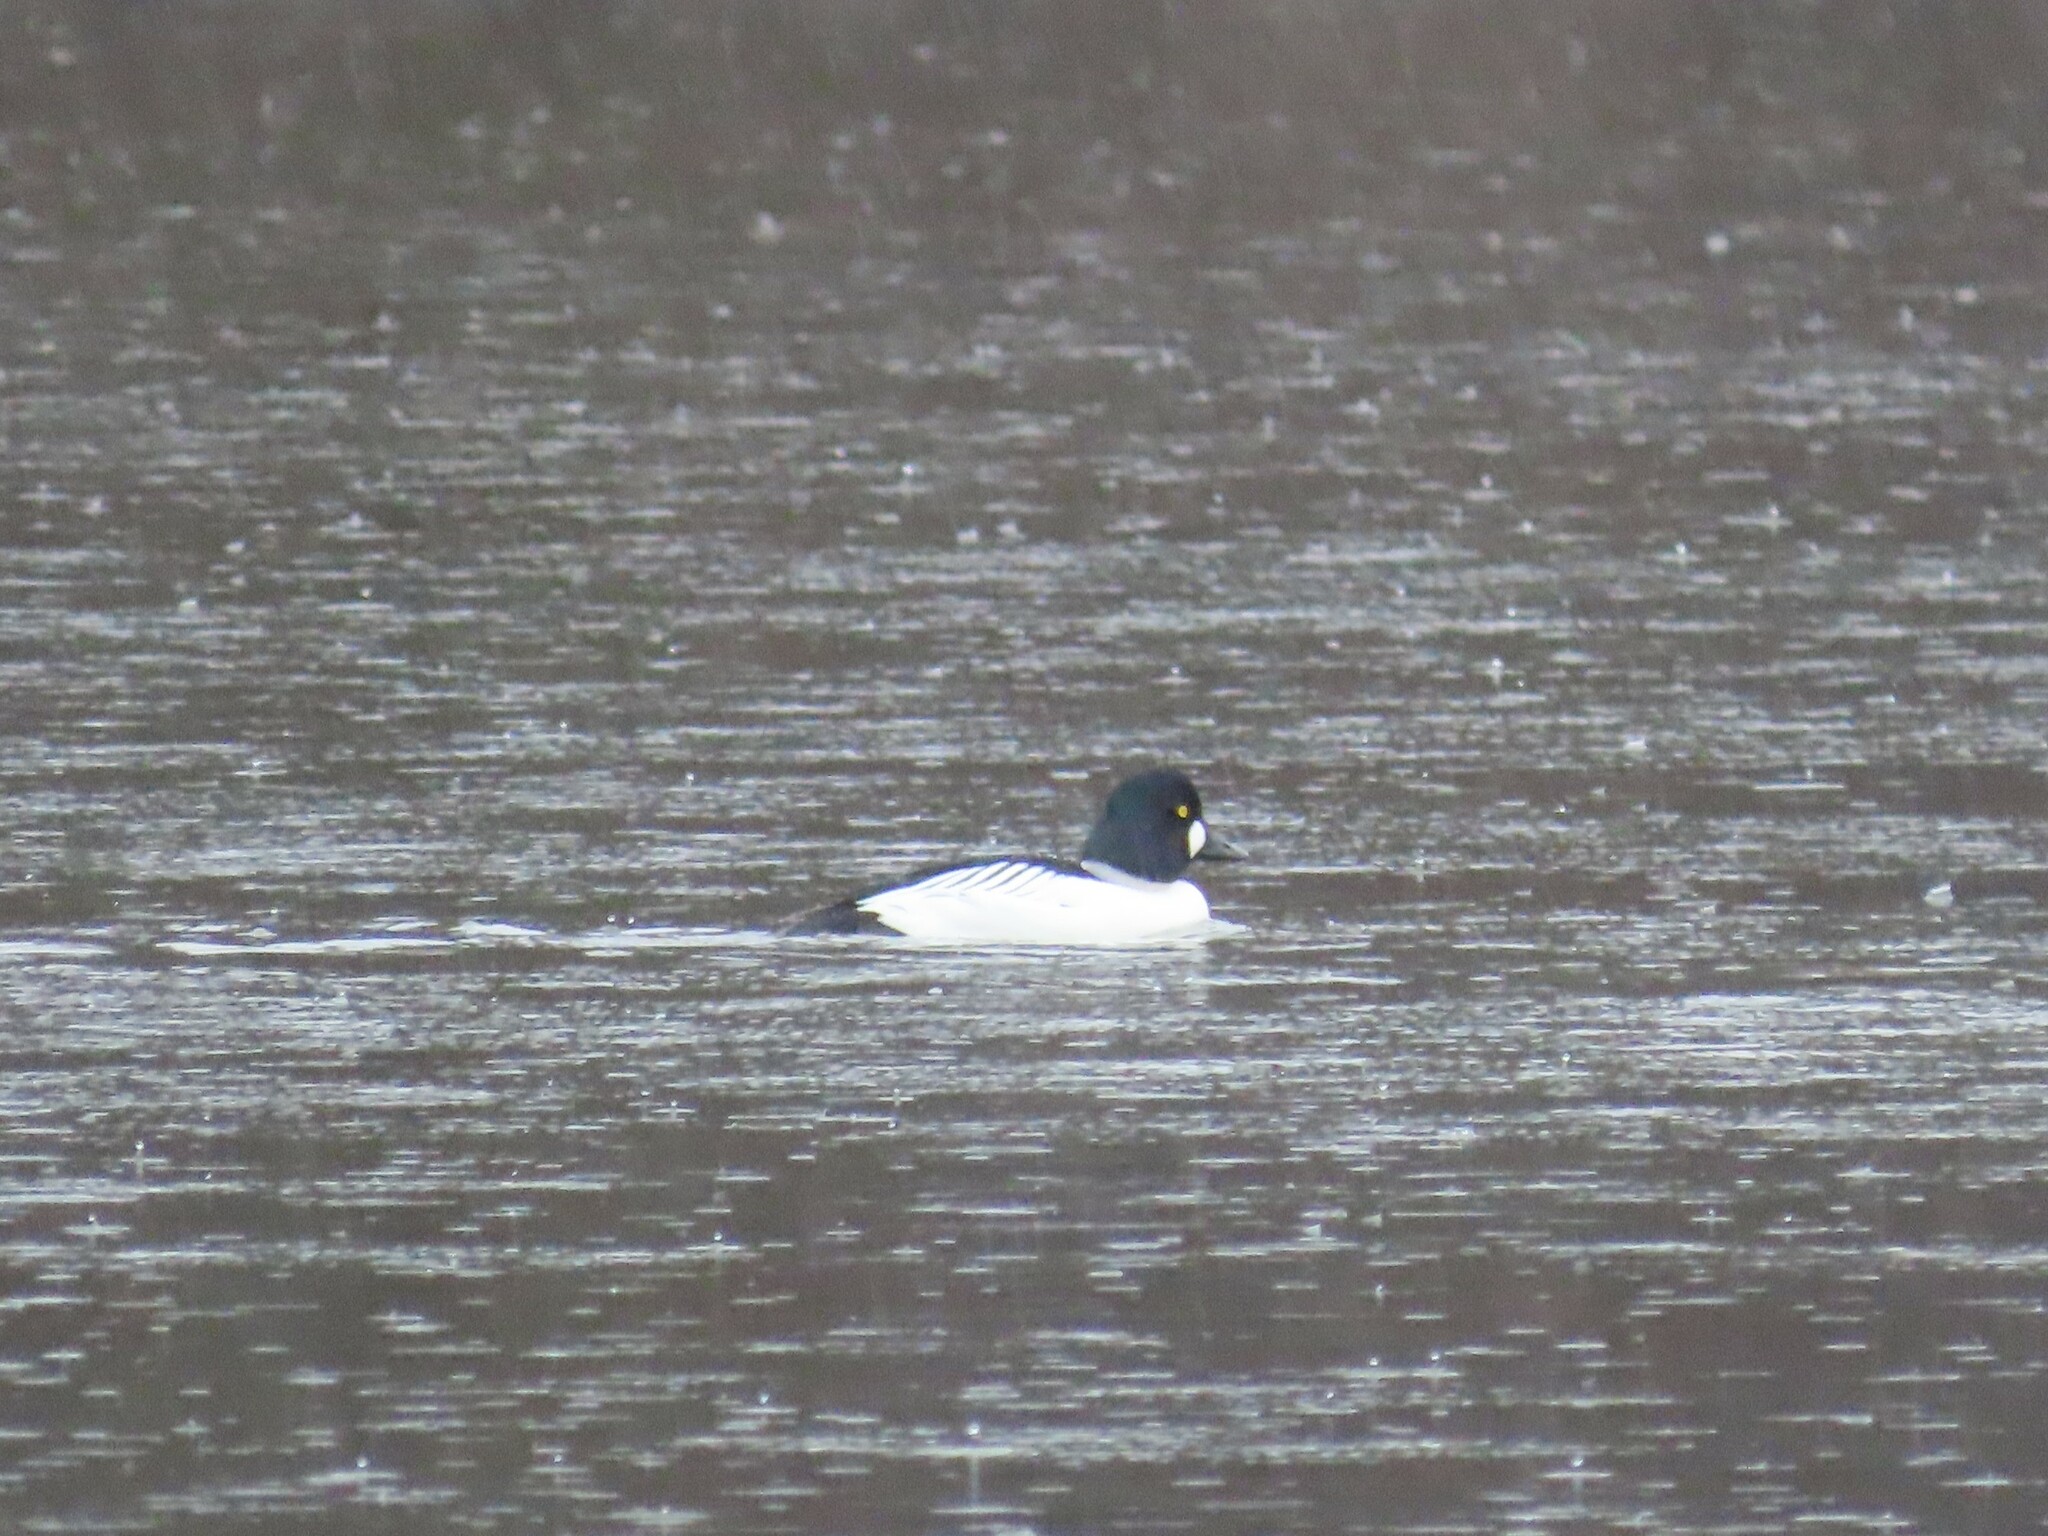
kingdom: Animalia
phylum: Chordata
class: Aves
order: Anseriformes
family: Anatidae
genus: Bucephala
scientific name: Bucephala clangula
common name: Common goldeneye
